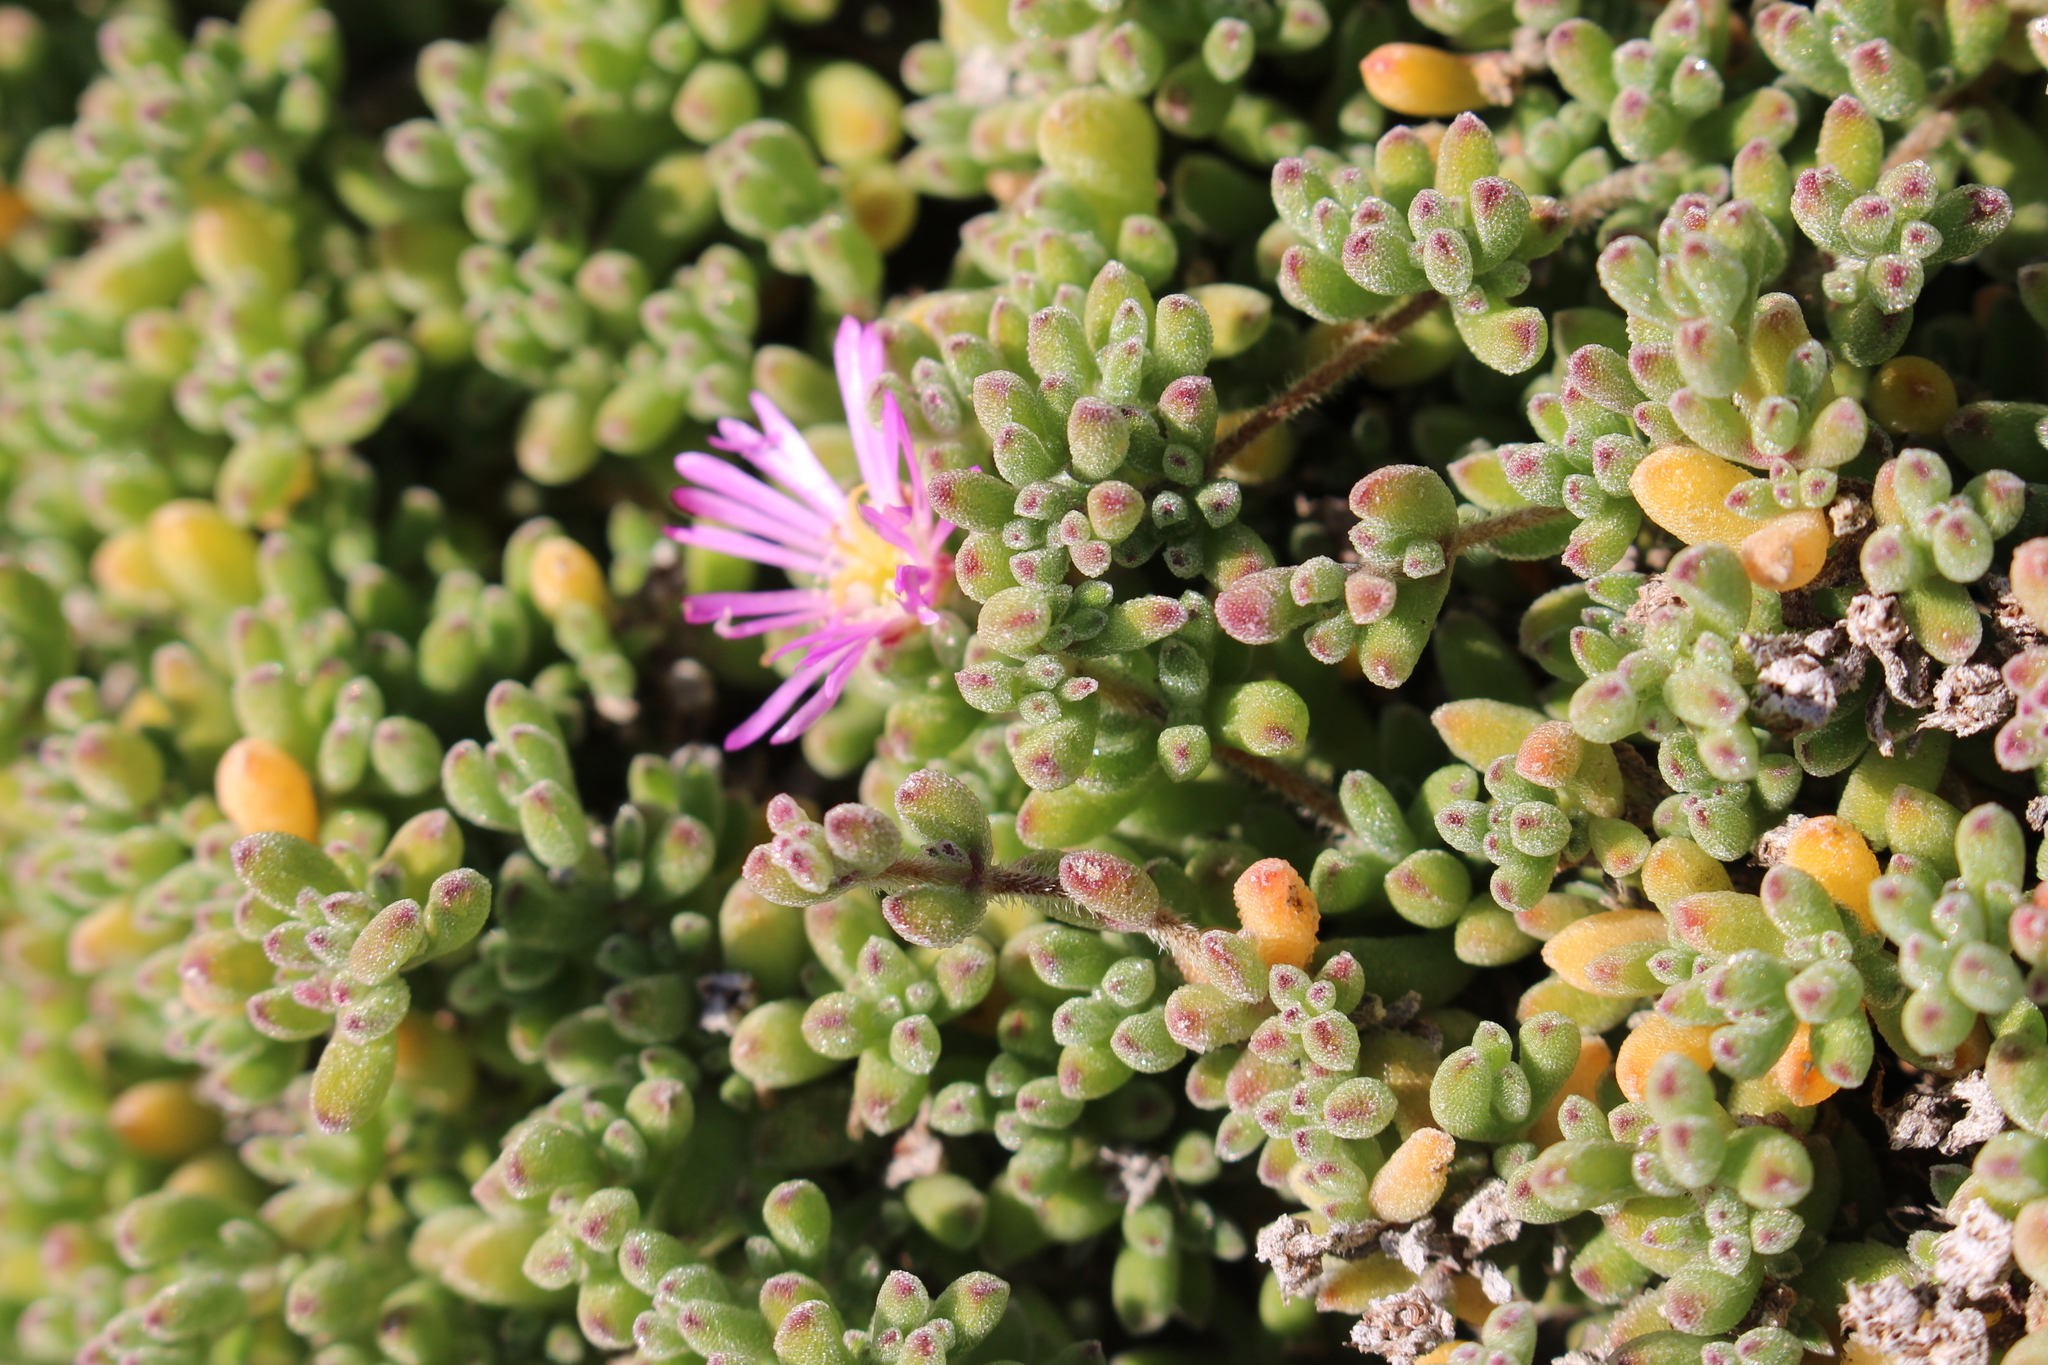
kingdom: Plantae
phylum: Tracheophyta
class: Magnoliopsida
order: Caryophyllales
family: Aizoaceae
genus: Drosanthemum
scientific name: Drosanthemum floribundum
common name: Pale dewplant
